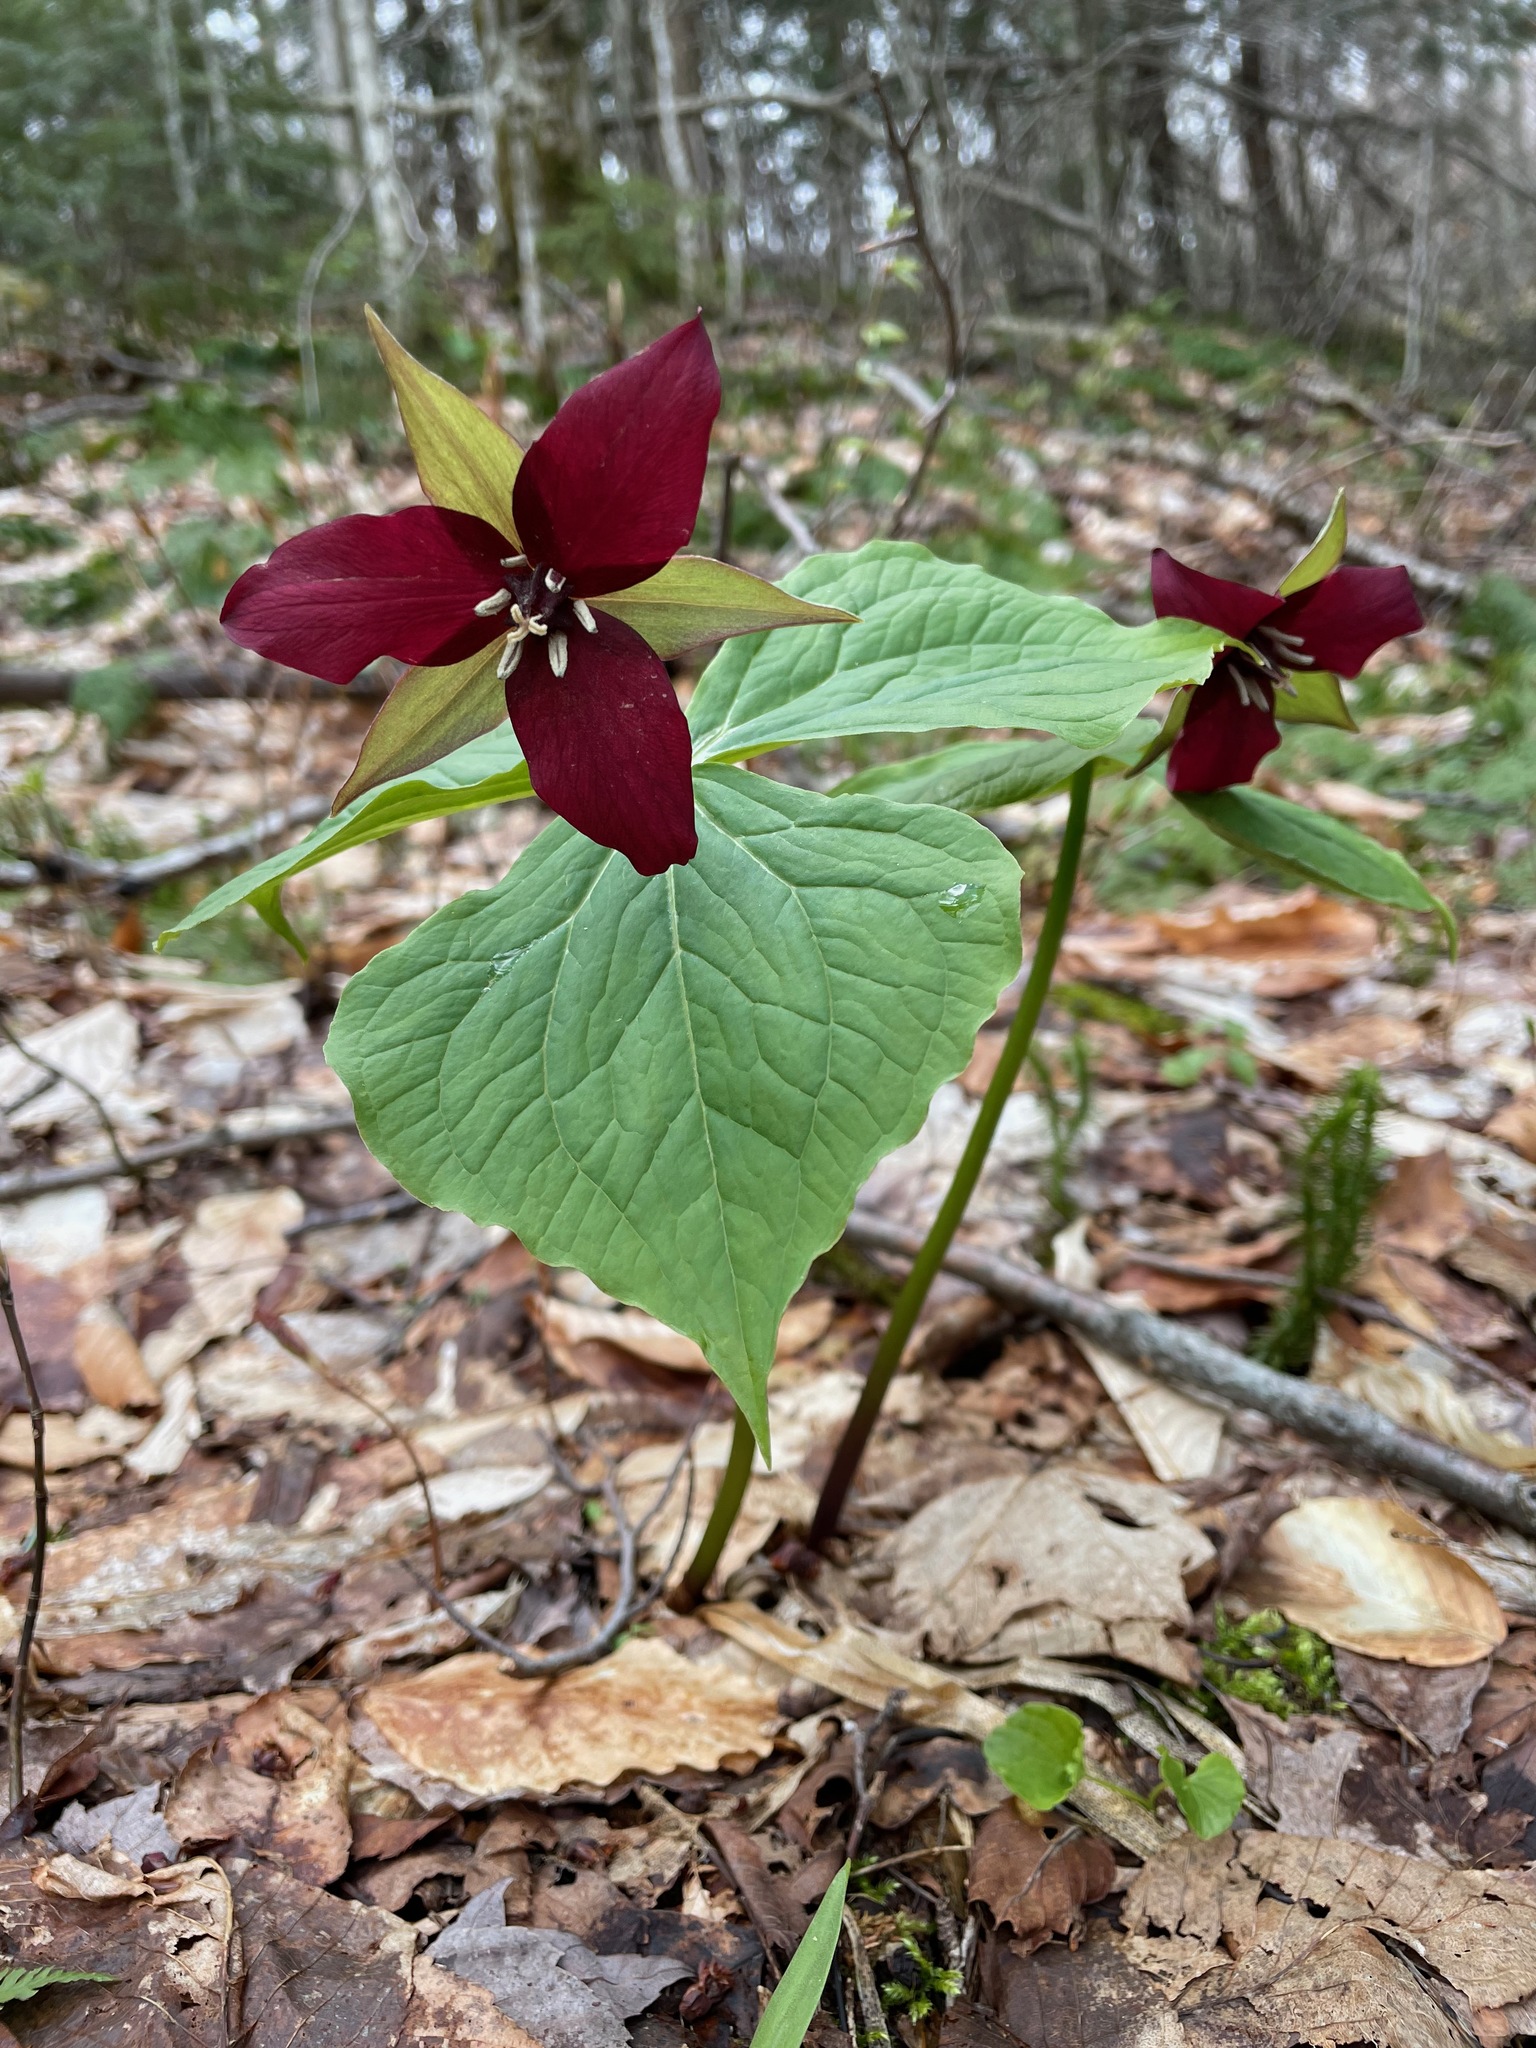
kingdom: Plantae
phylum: Tracheophyta
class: Liliopsida
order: Liliales
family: Melanthiaceae
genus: Trillium
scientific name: Trillium erectum
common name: Purple trillium
